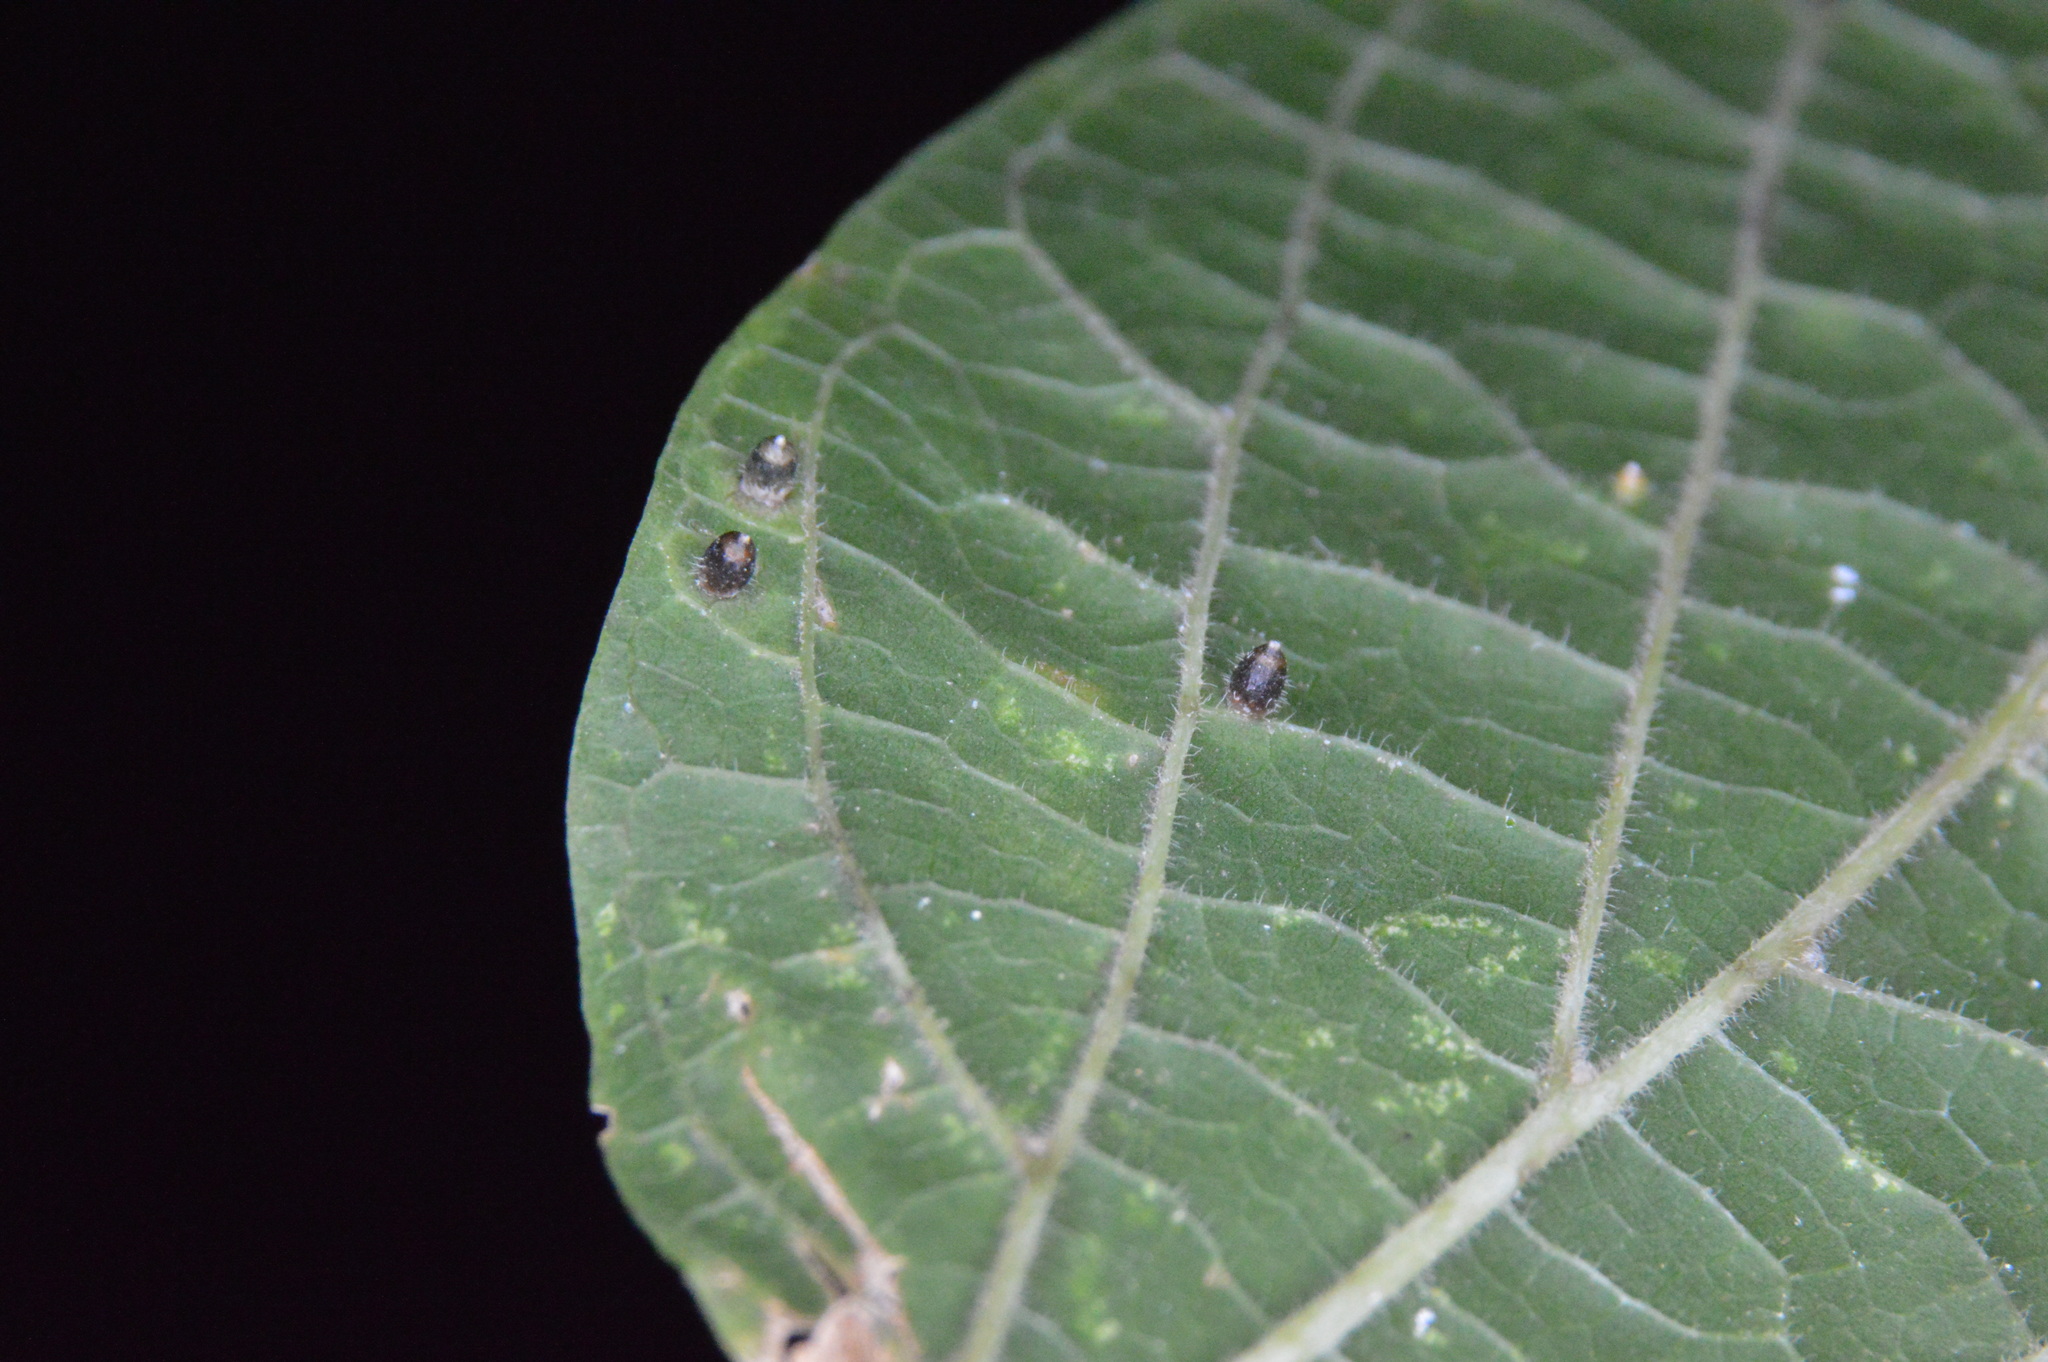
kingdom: Animalia
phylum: Arthropoda
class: Insecta
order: Diptera
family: Cecidomyiidae
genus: Celticecis
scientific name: Celticecis cupiformis
